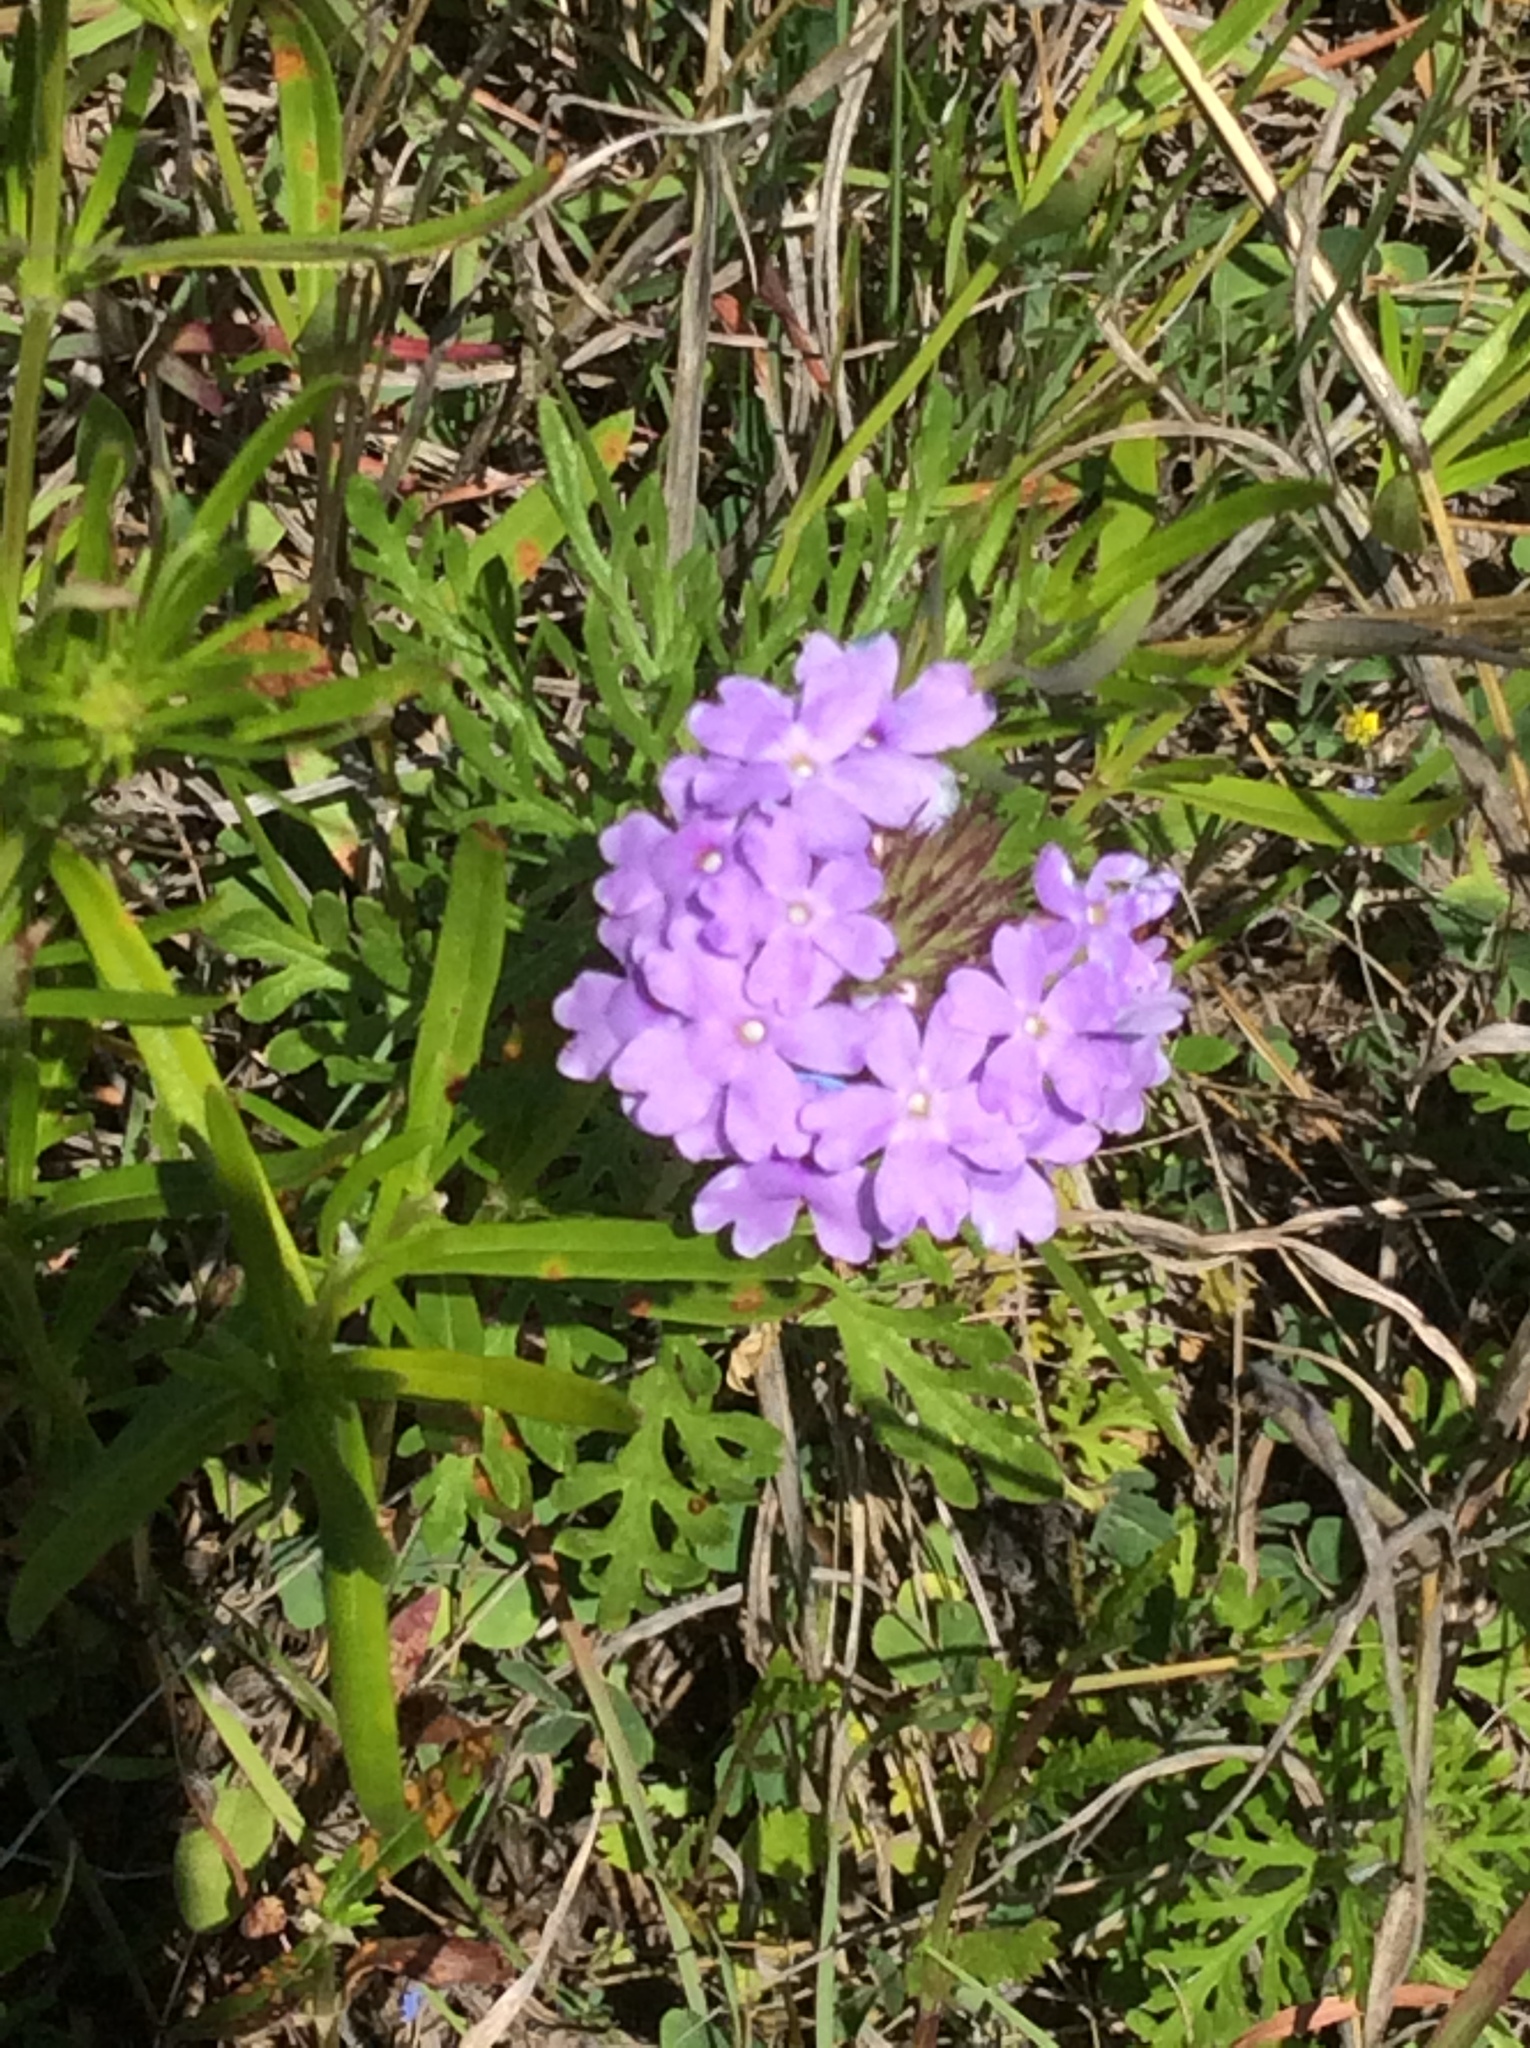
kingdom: Plantae
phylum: Tracheophyta
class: Magnoliopsida
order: Lamiales
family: Verbenaceae
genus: Verbena
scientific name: Verbena bipinnatifida
